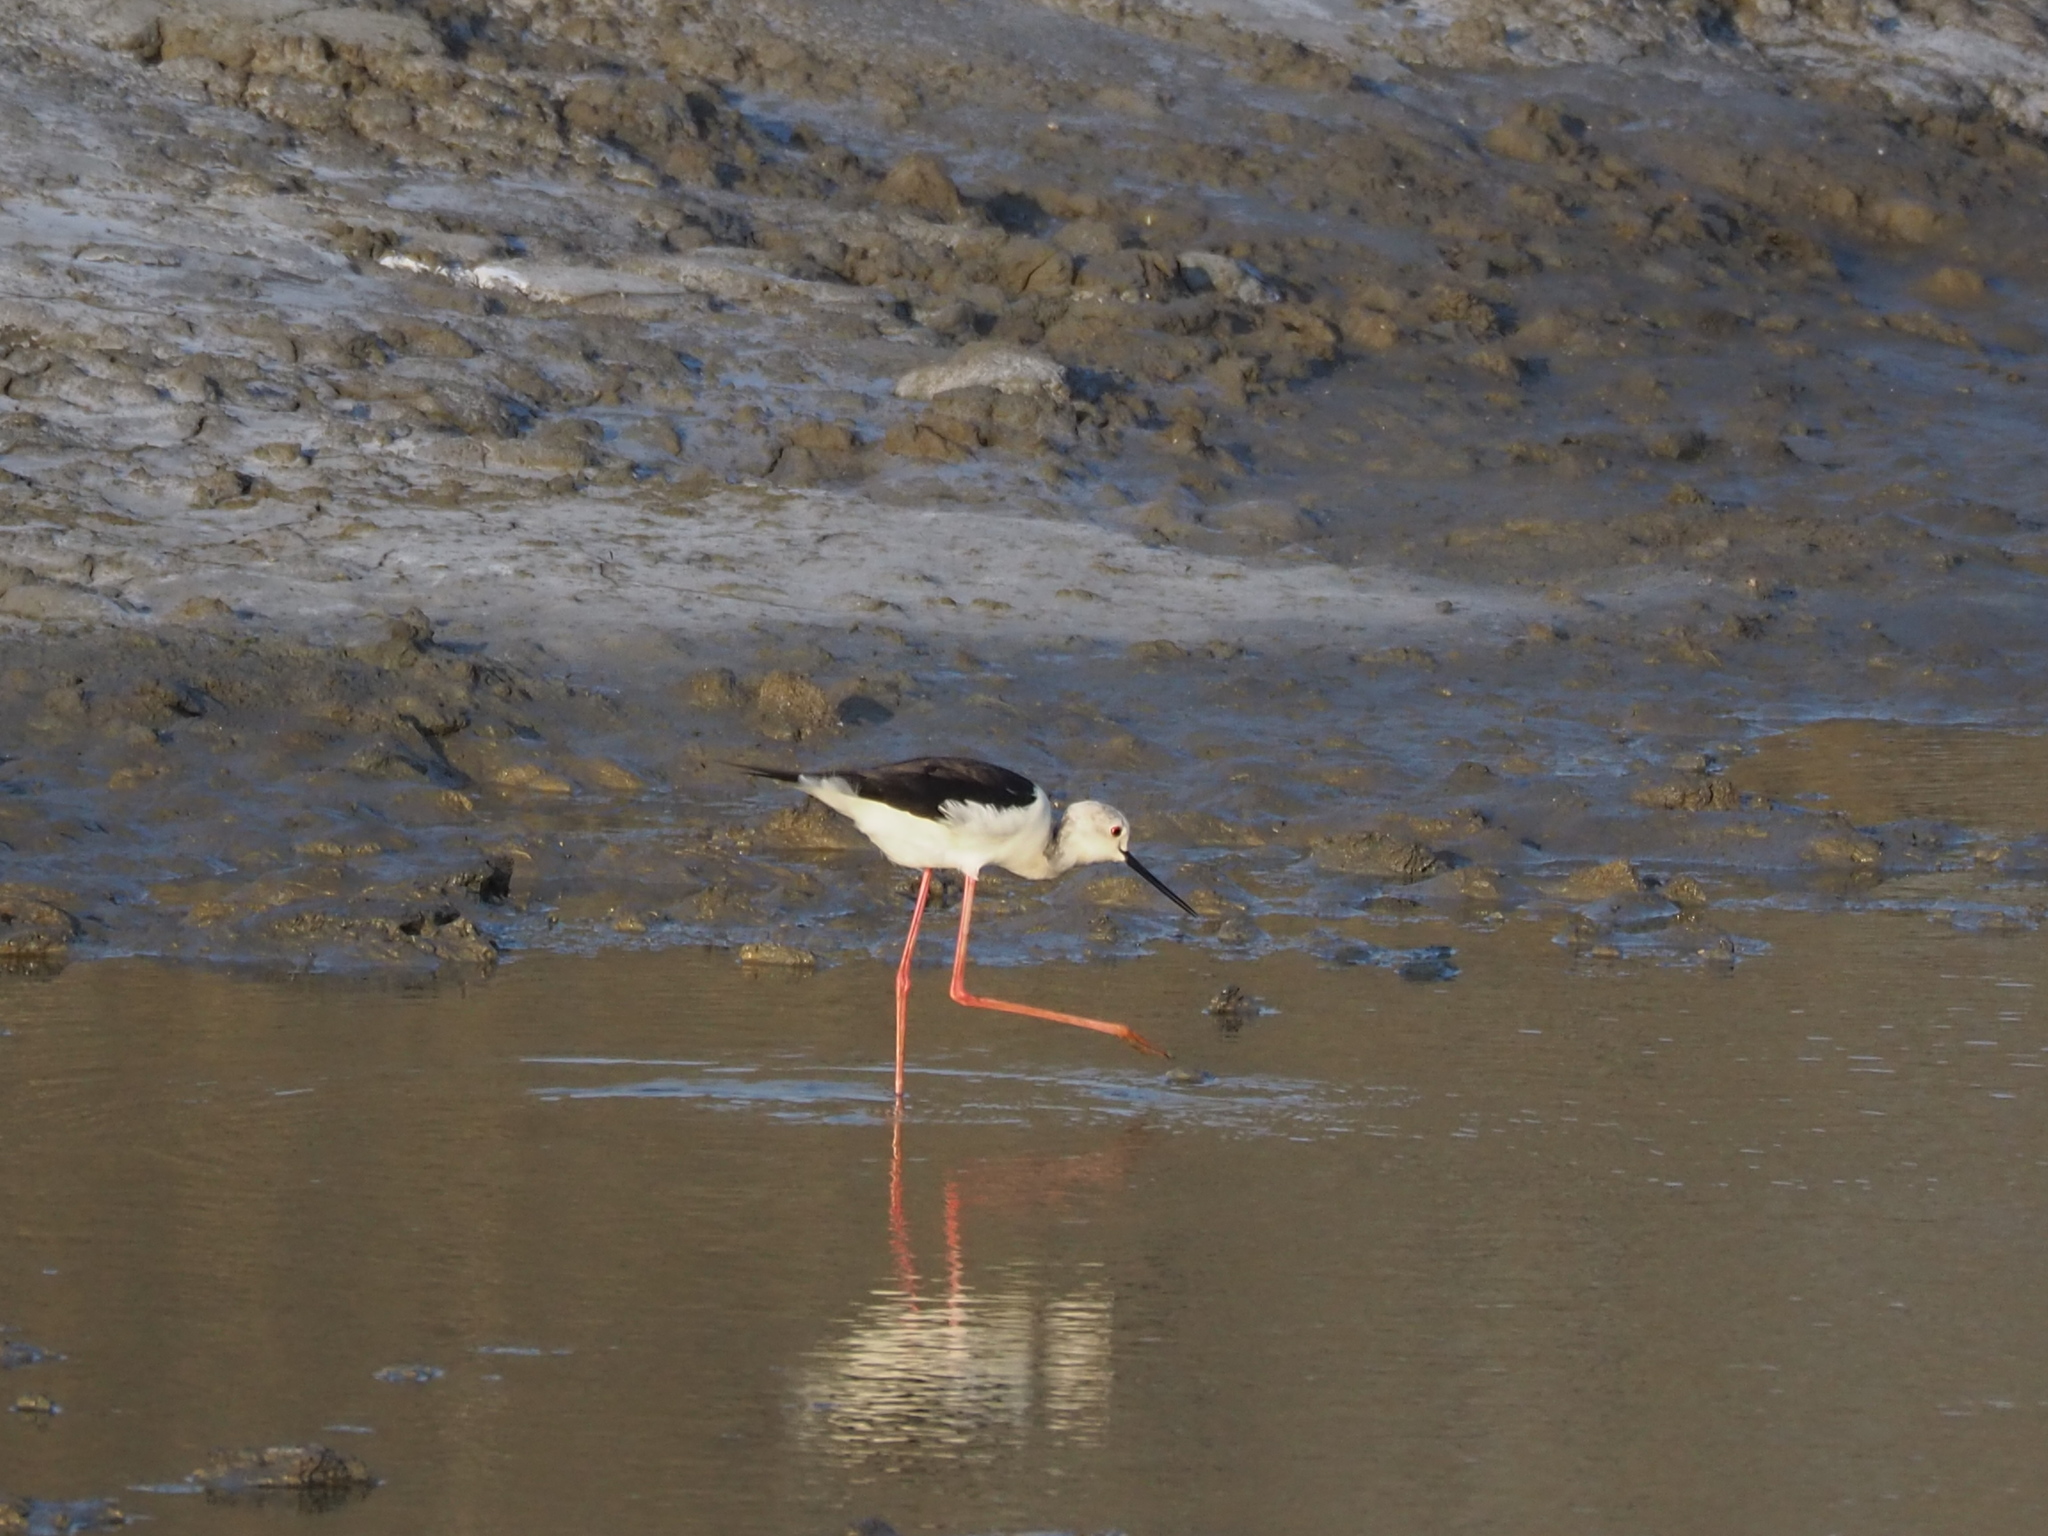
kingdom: Animalia
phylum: Chordata
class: Aves
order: Charadriiformes
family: Recurvirostridae
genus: Himantopus
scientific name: Himantopus himantopus
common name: Black-winged stilt
